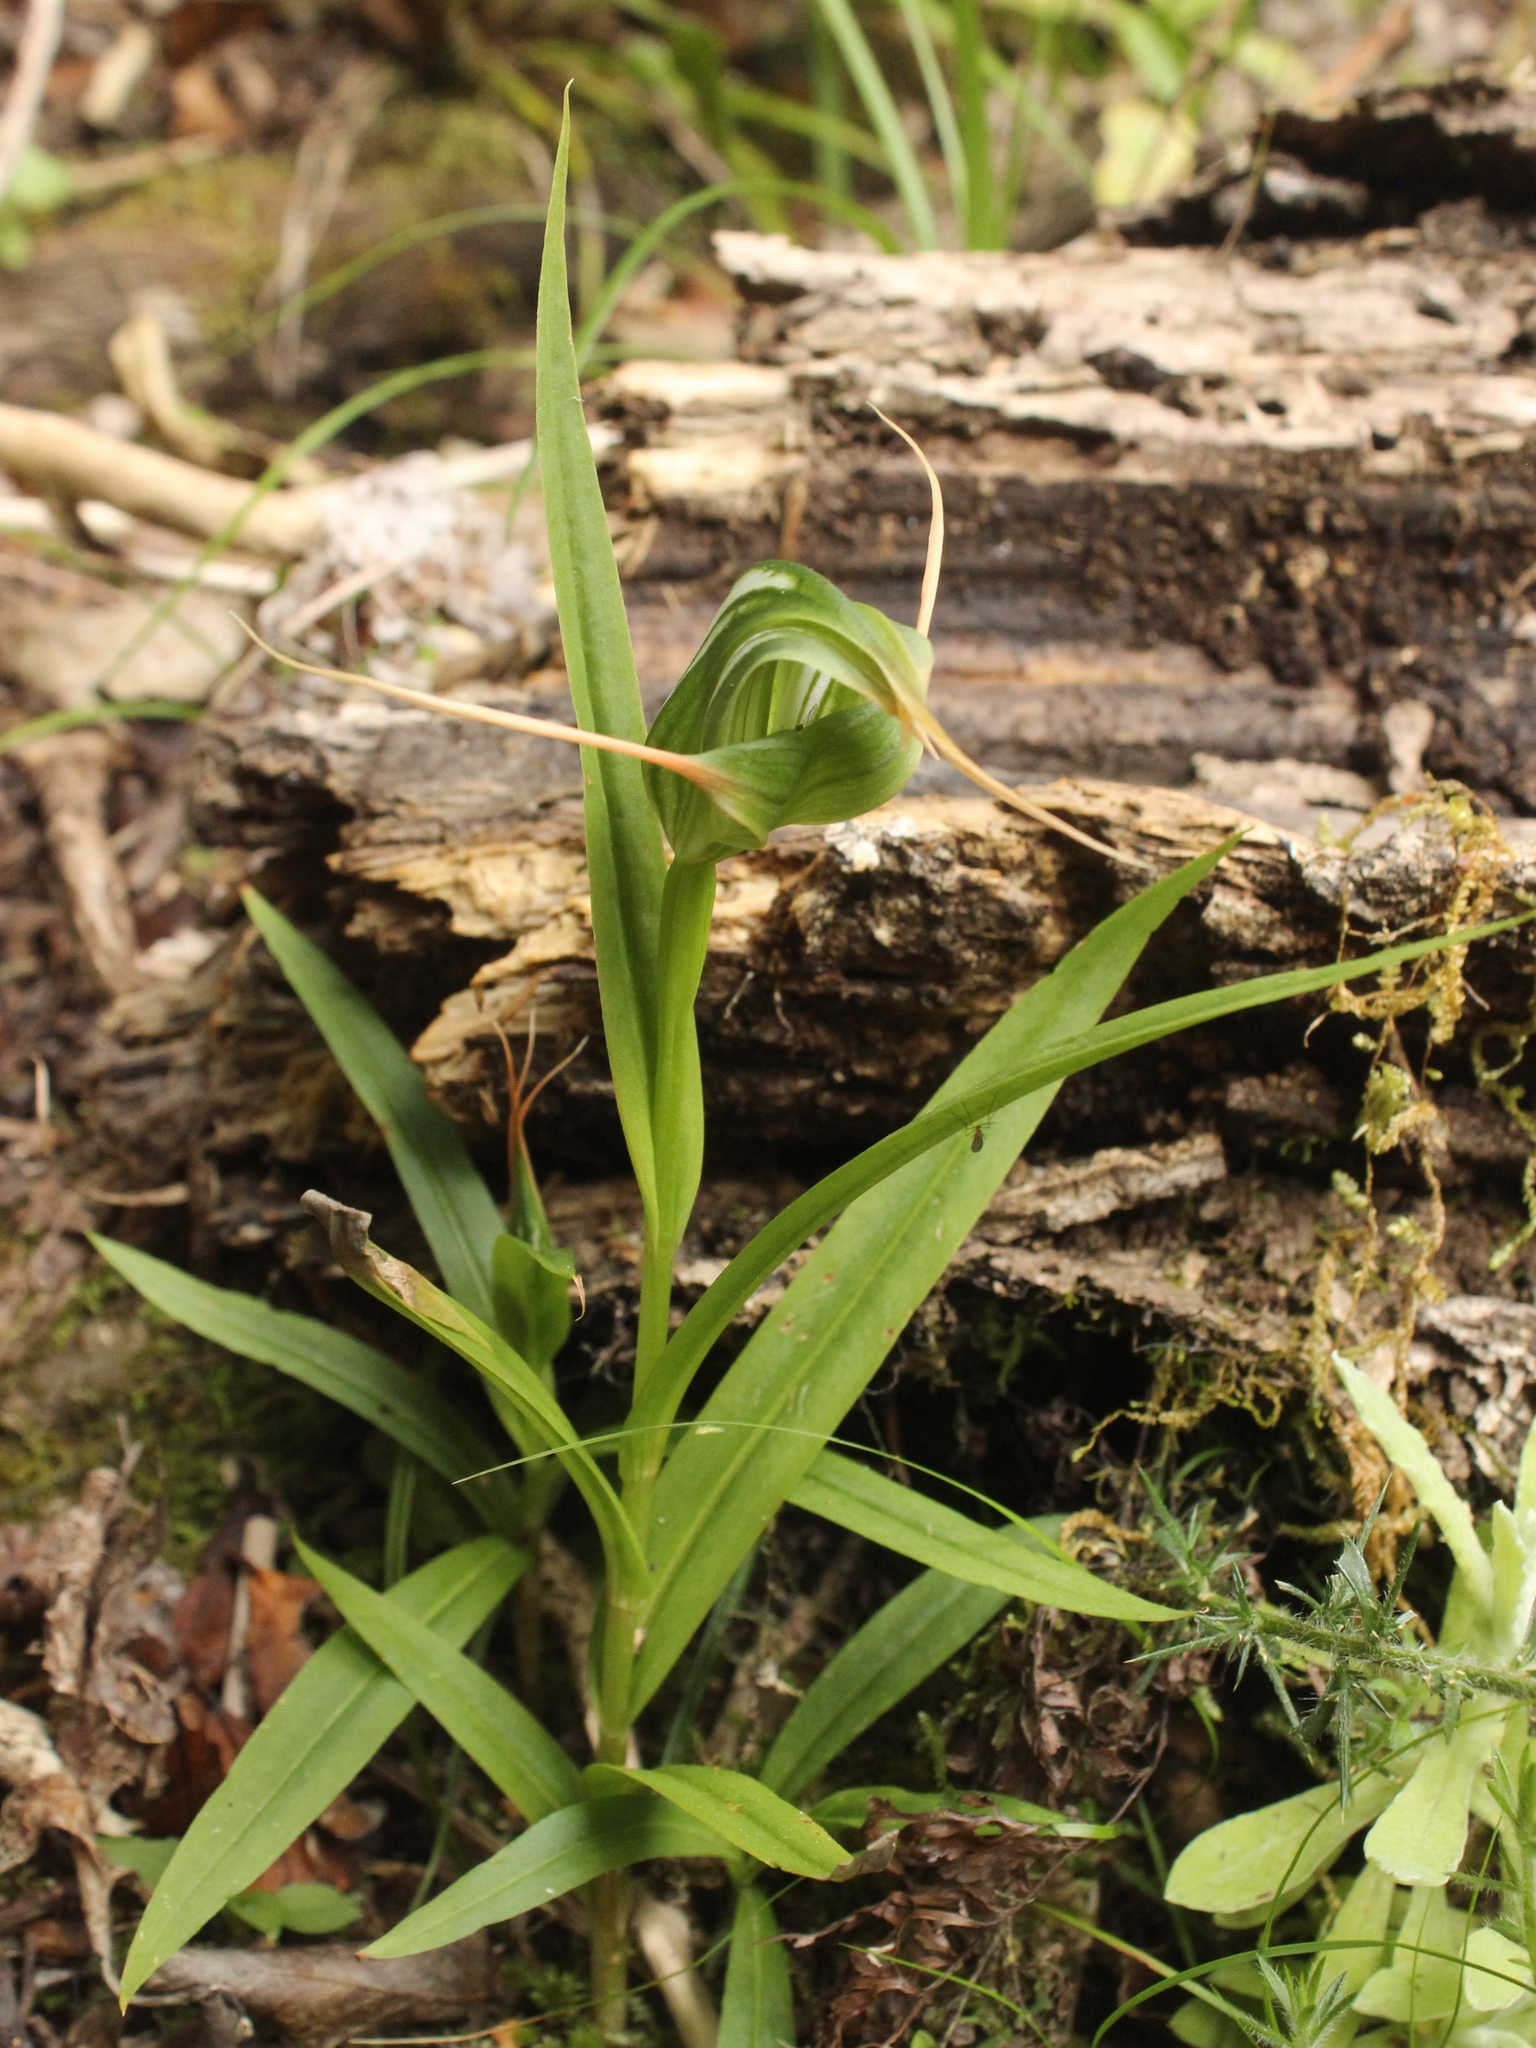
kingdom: Plantae
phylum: Tracheophyta
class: Liliopsida
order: Asparagales
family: Orchidaceae
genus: Pterostylis
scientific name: Pterostylis banksii
